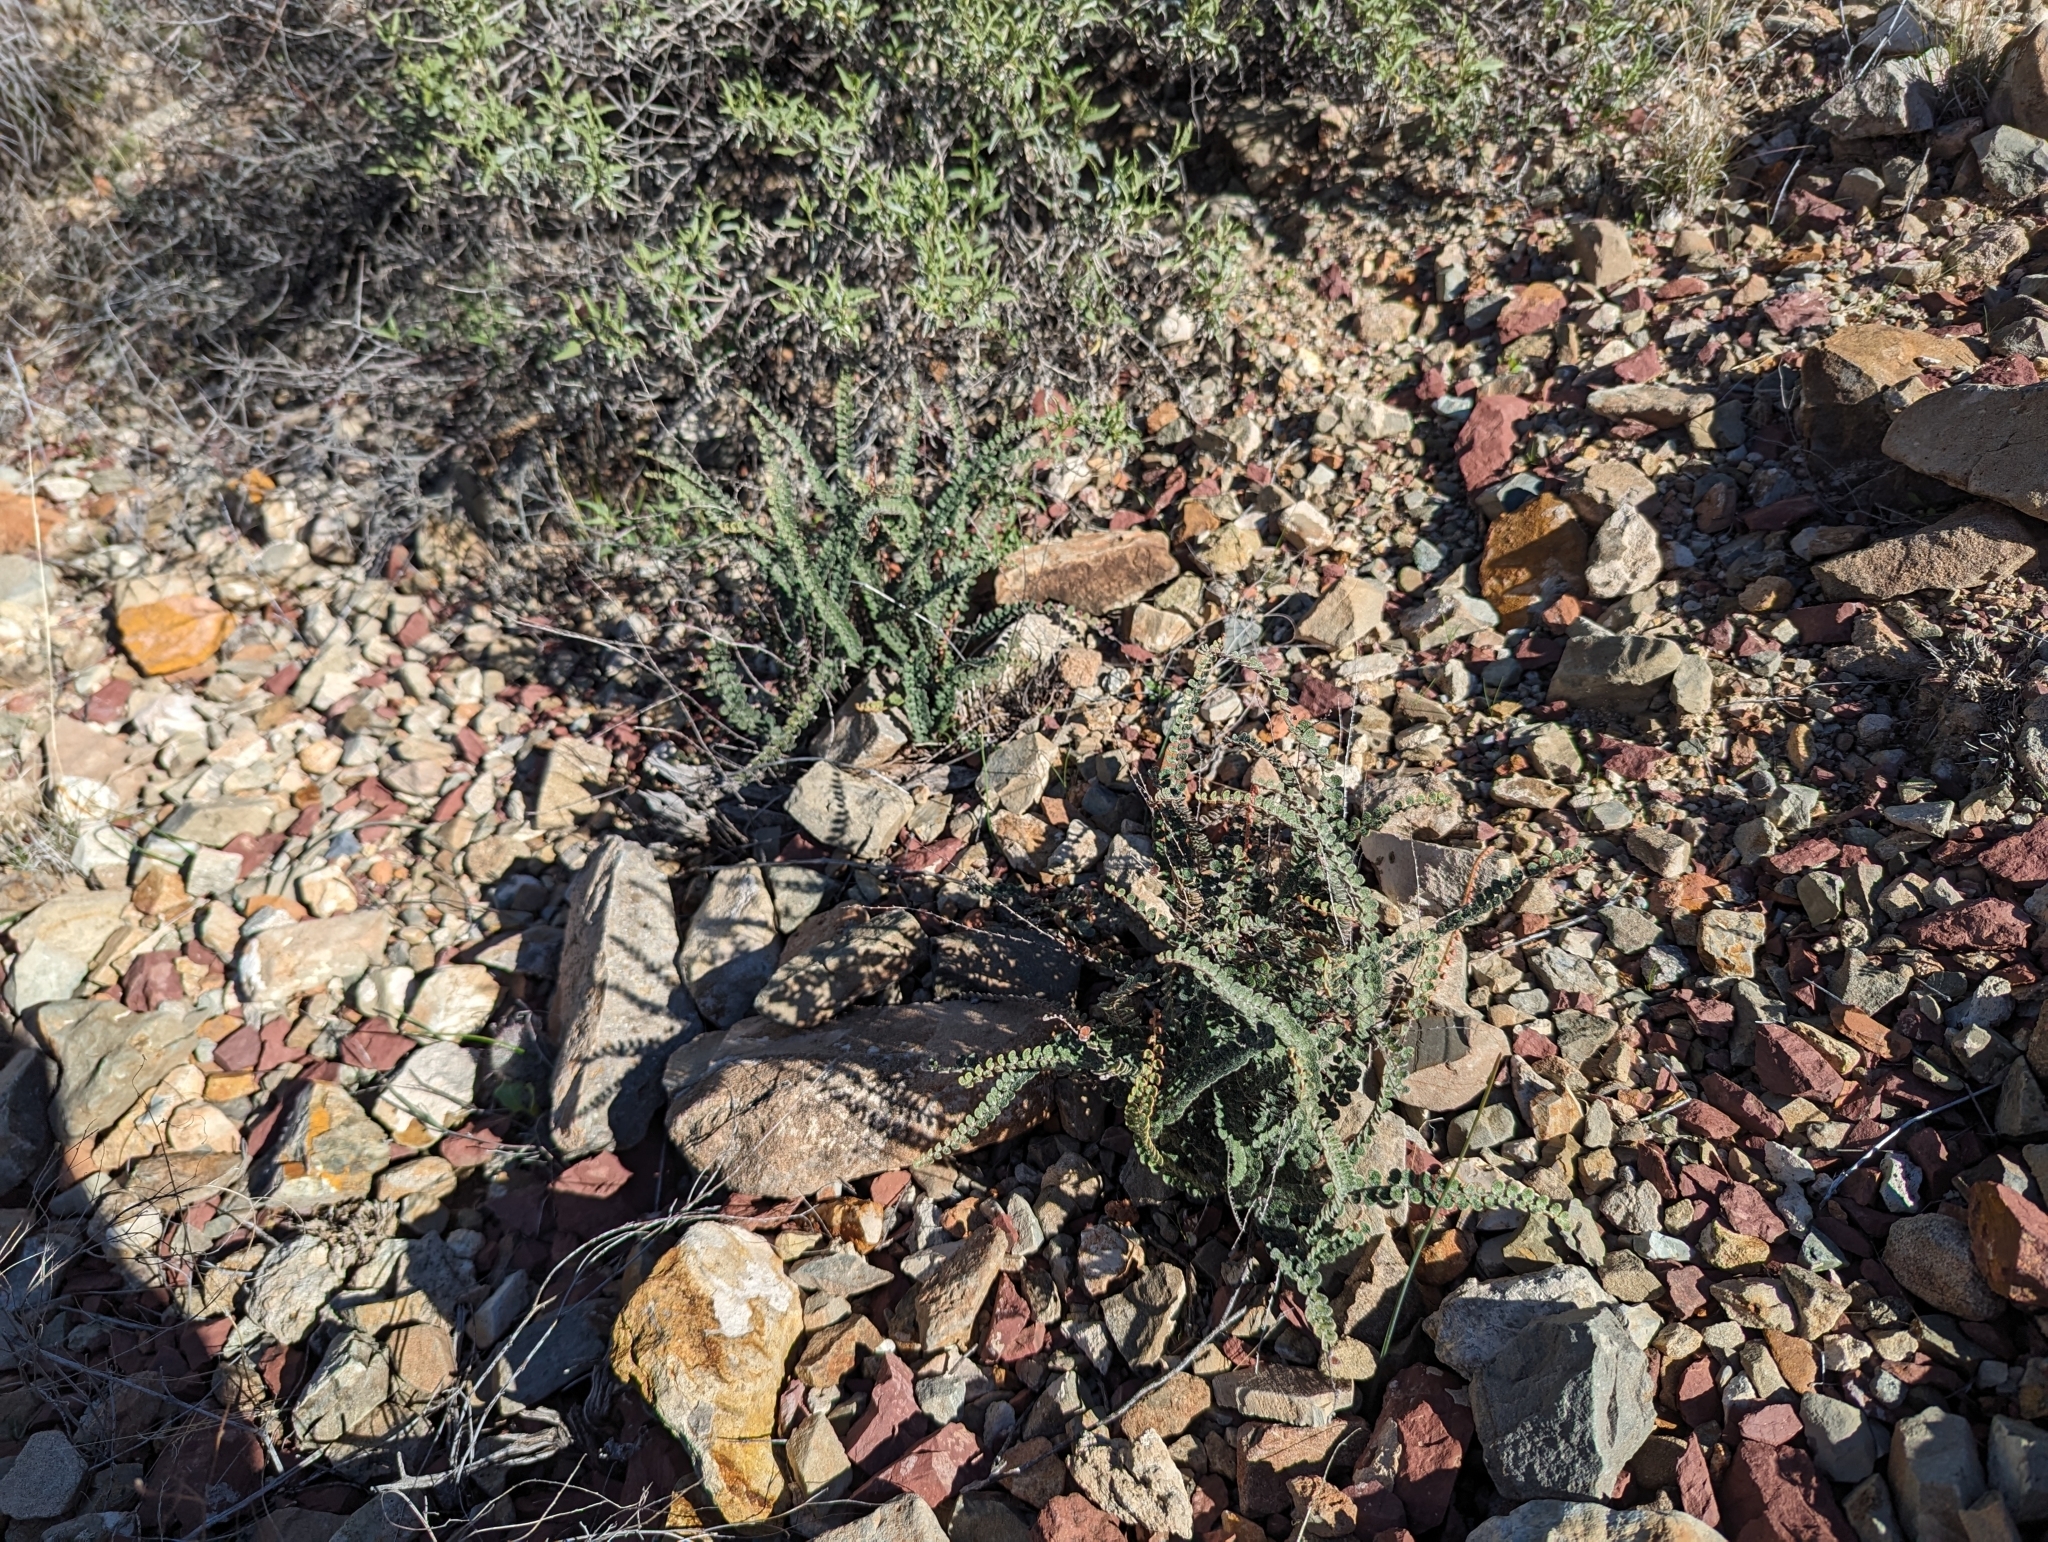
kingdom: Plantae
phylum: Tracheophyta
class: Polypodiopsida
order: Polypodiales
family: Pteridaceae
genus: Astrolepis
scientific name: Astrolepis cochisensis
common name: Scaly cloak fern
